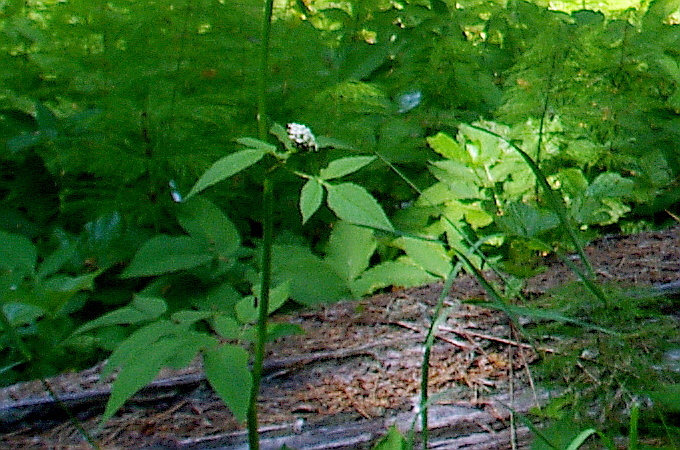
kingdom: Plantae
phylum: Tracheophyta
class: Magnoliopsida
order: Apiales
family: Apiaceae
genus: Aegopodium
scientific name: Aegopodium podagraria
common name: Ground-elder
